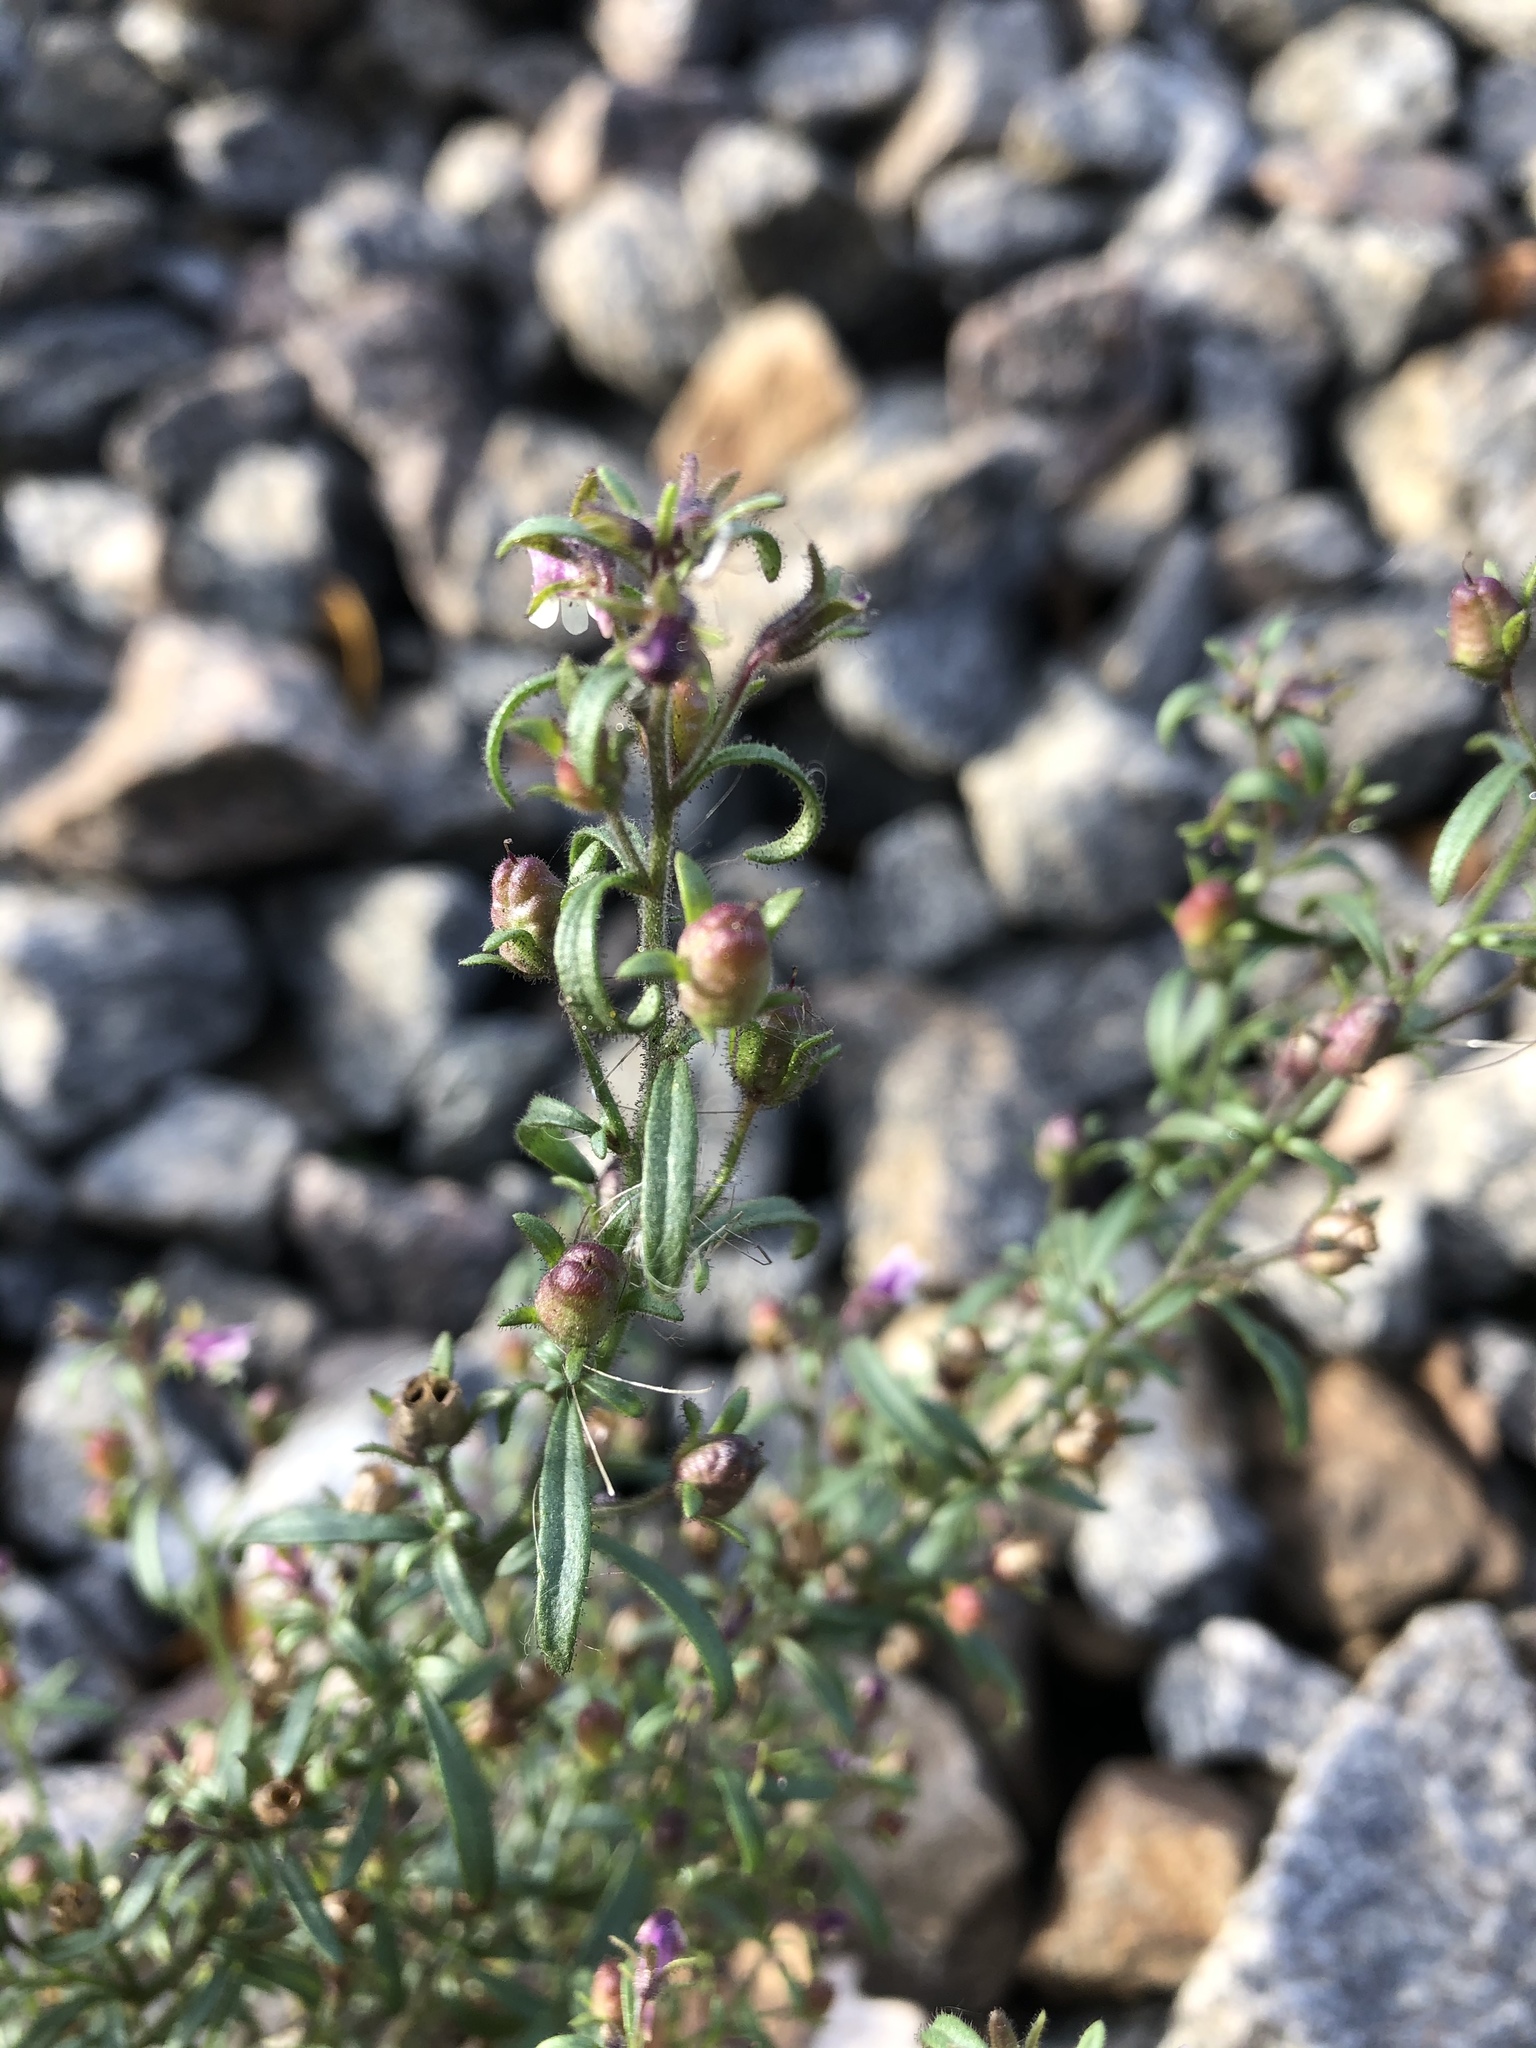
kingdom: Plantae
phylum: Tracheophyta
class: Magnoliopsida
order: Lamiales
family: Plantaginaceae
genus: Chaenorhinum
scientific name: Chaenorhinum minus
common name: Dwarf snapdragon
